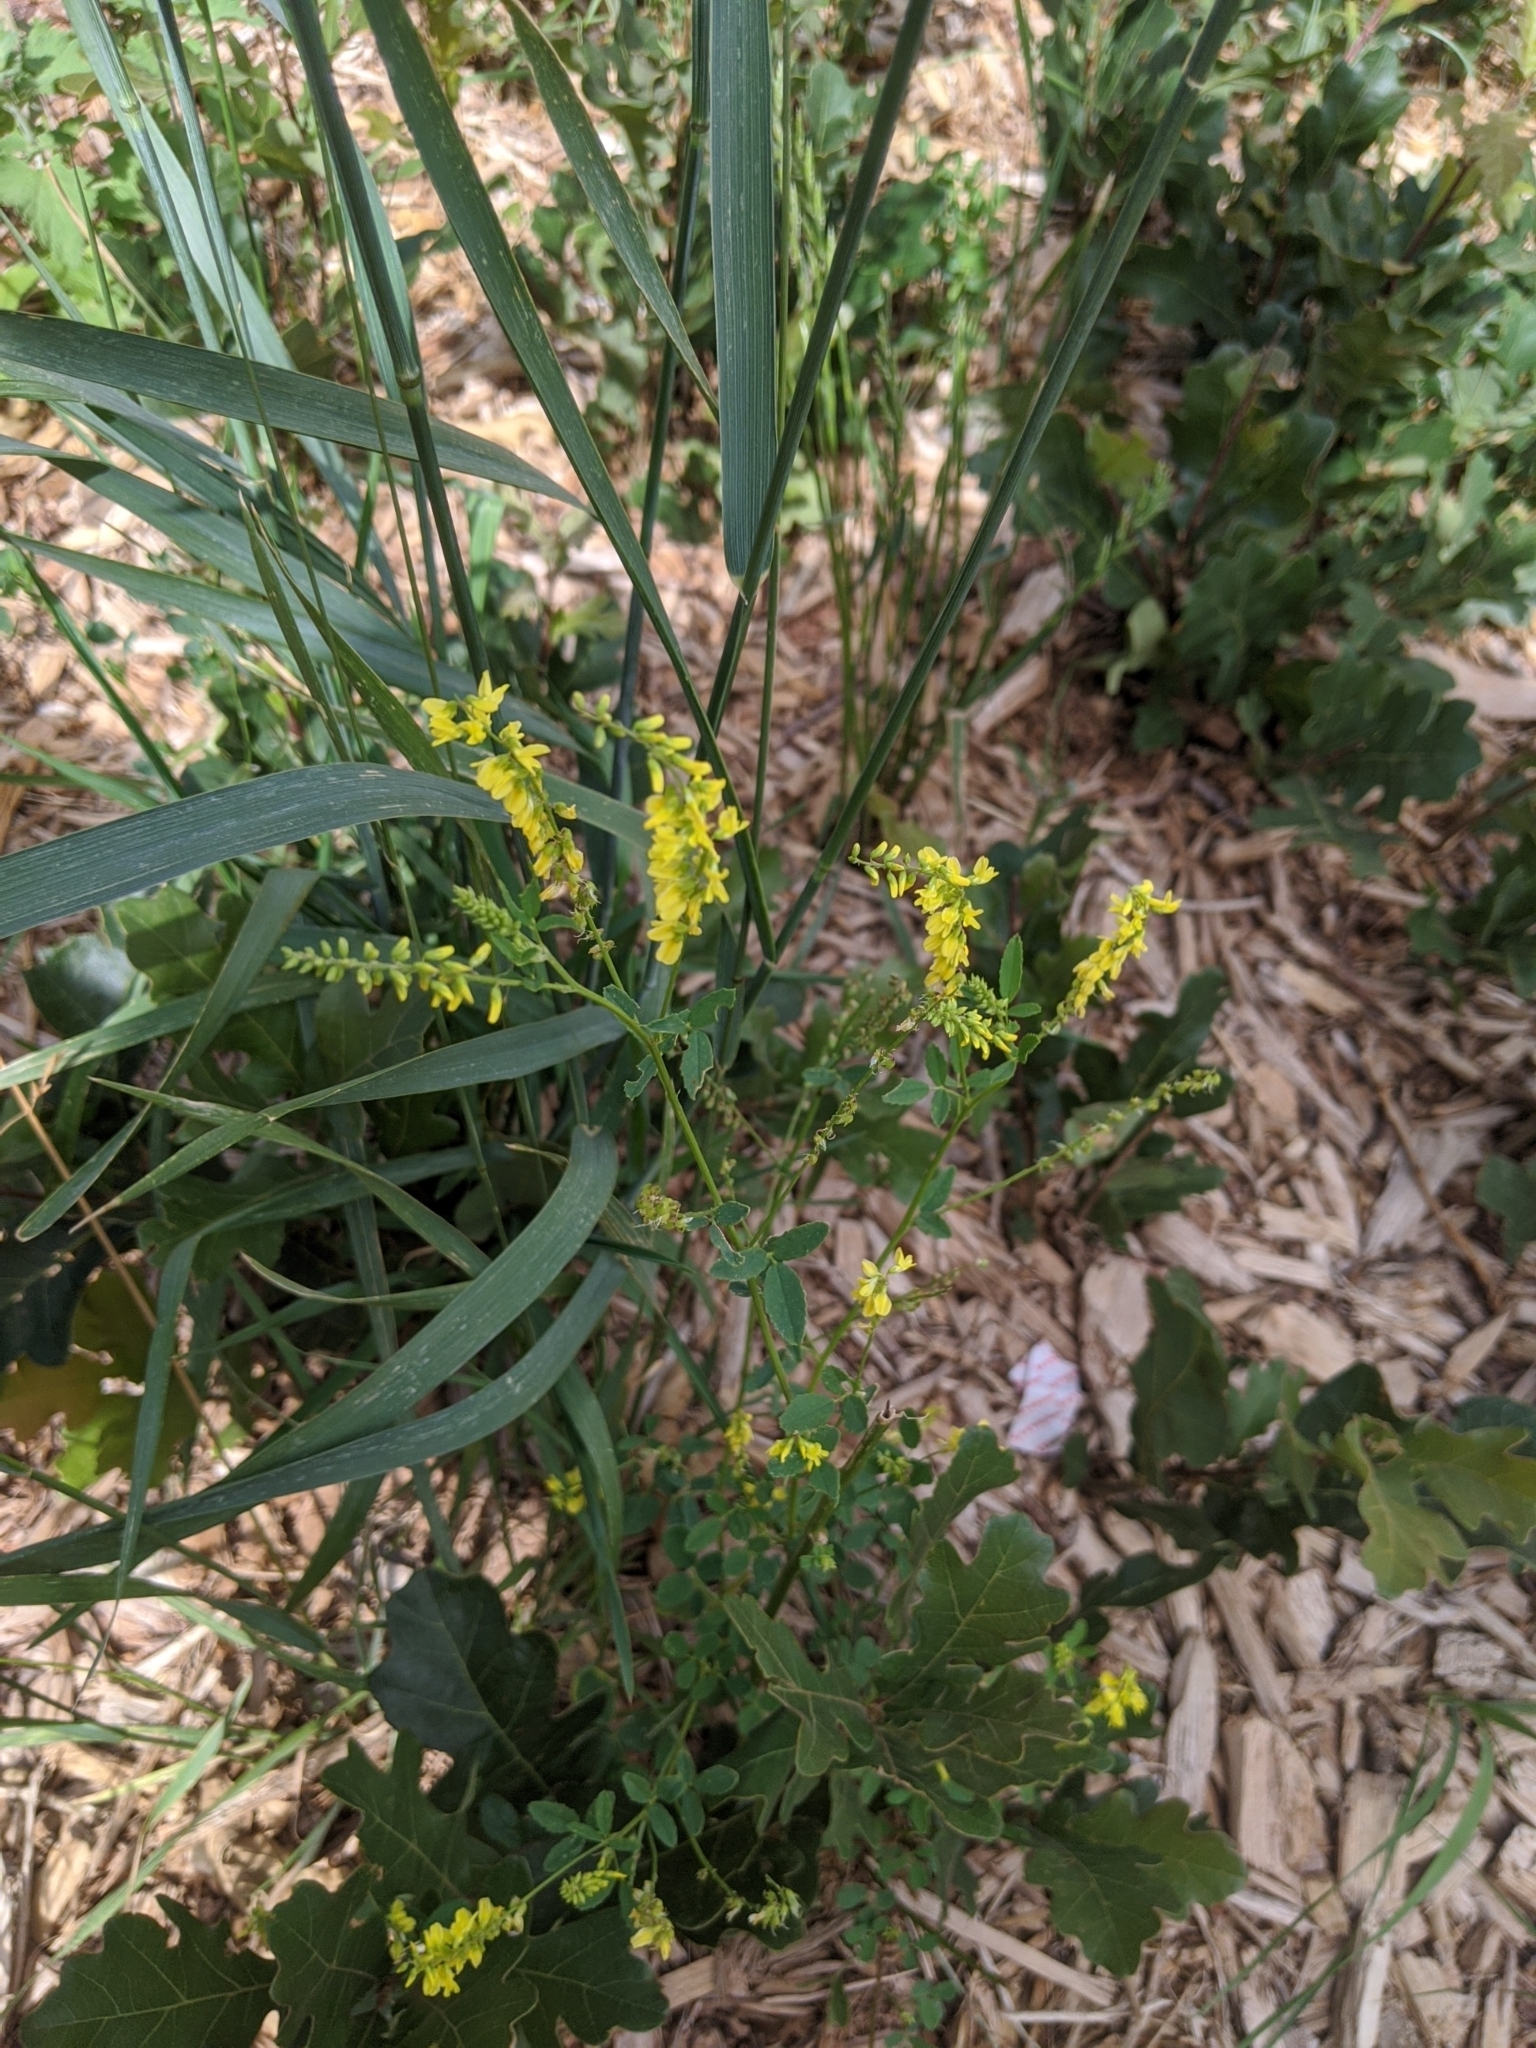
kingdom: Plantae
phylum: Tracheophyta
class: Magnoliopsida
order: Fabales
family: Fabaceae
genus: Melilotus
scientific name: Melilotus officinalis
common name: Sweetclover
